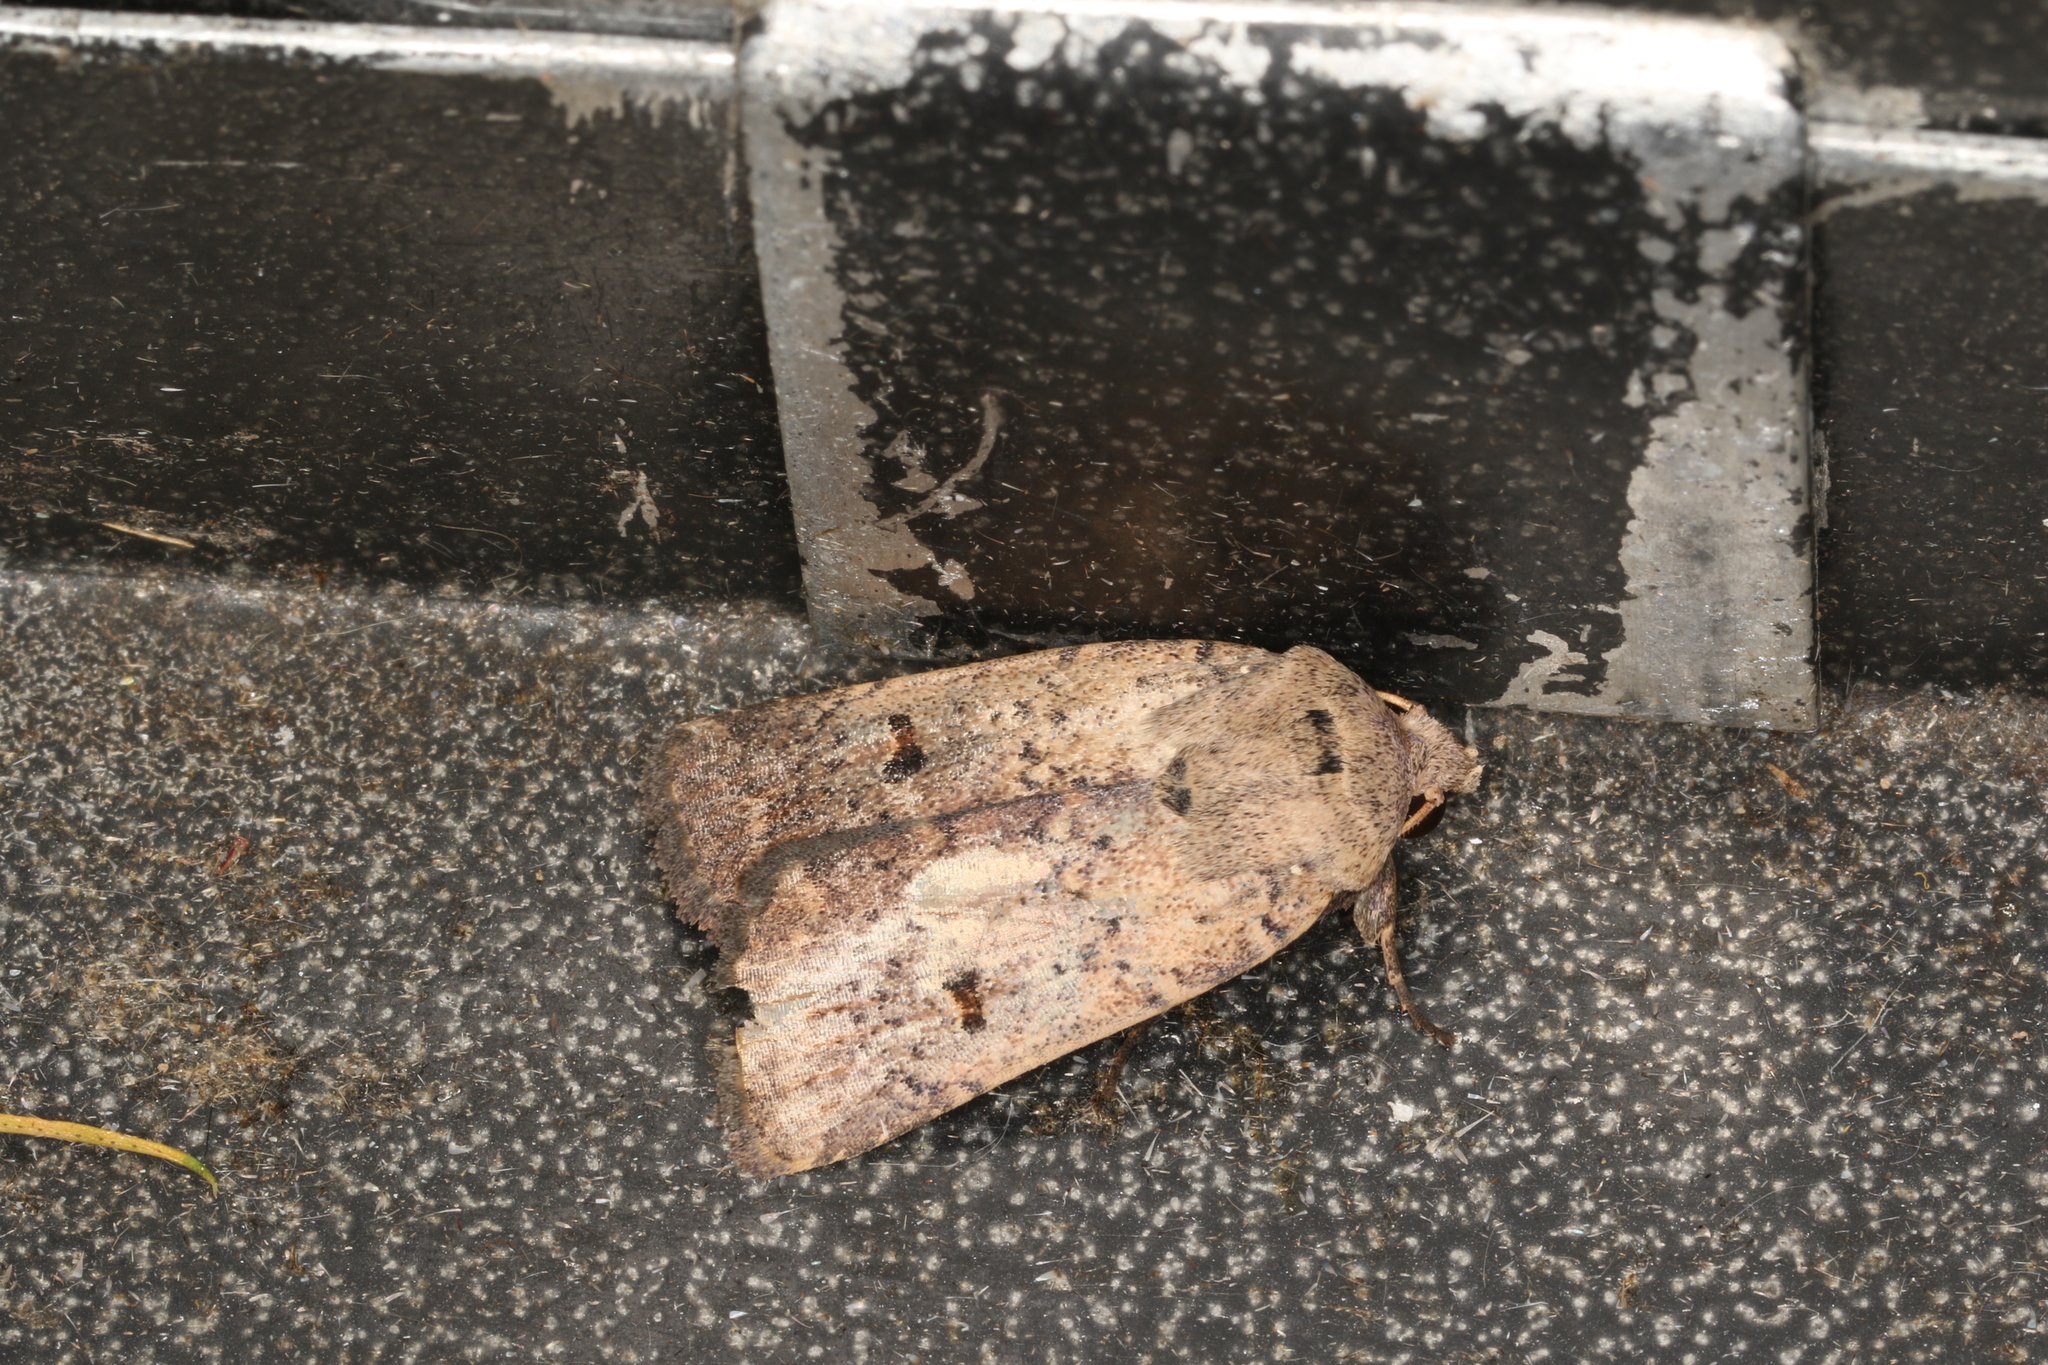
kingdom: Animalia
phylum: Arthropoda
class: Insecta
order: Lepidoptera
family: Noctuidae
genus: Proteuxoa
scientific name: Proteuxoa hypochalchis
